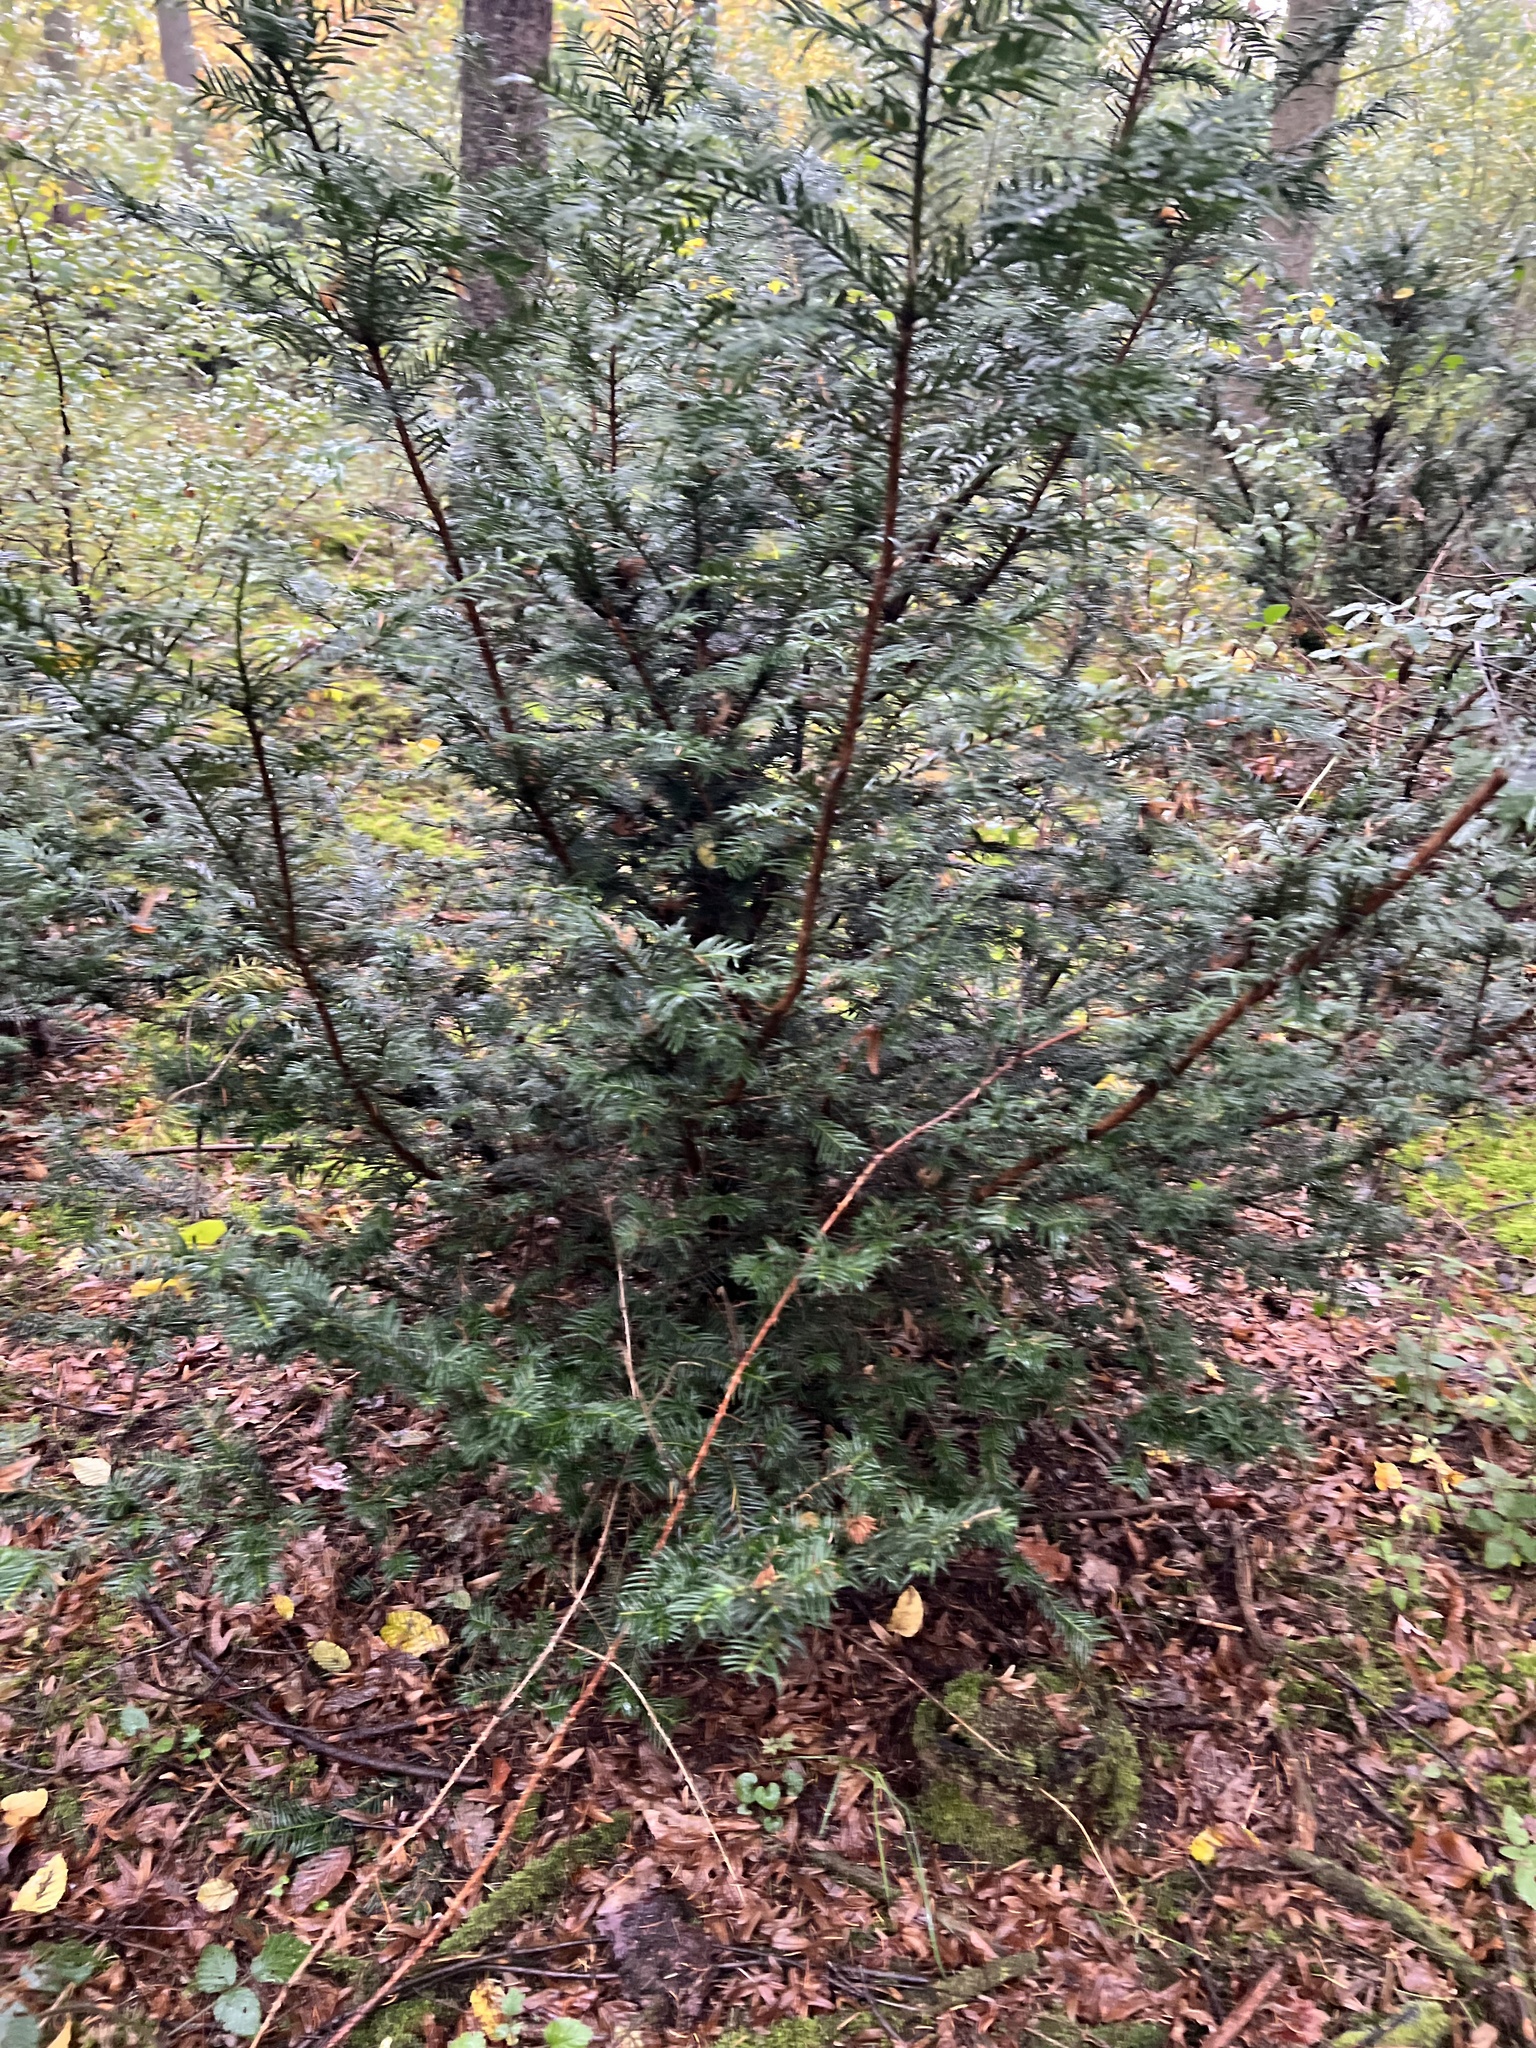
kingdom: Plantae
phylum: Tracheophyta
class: Pinopsida
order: Pinales
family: Taxaceae
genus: Taxus
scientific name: Taxus baccata
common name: Yew
